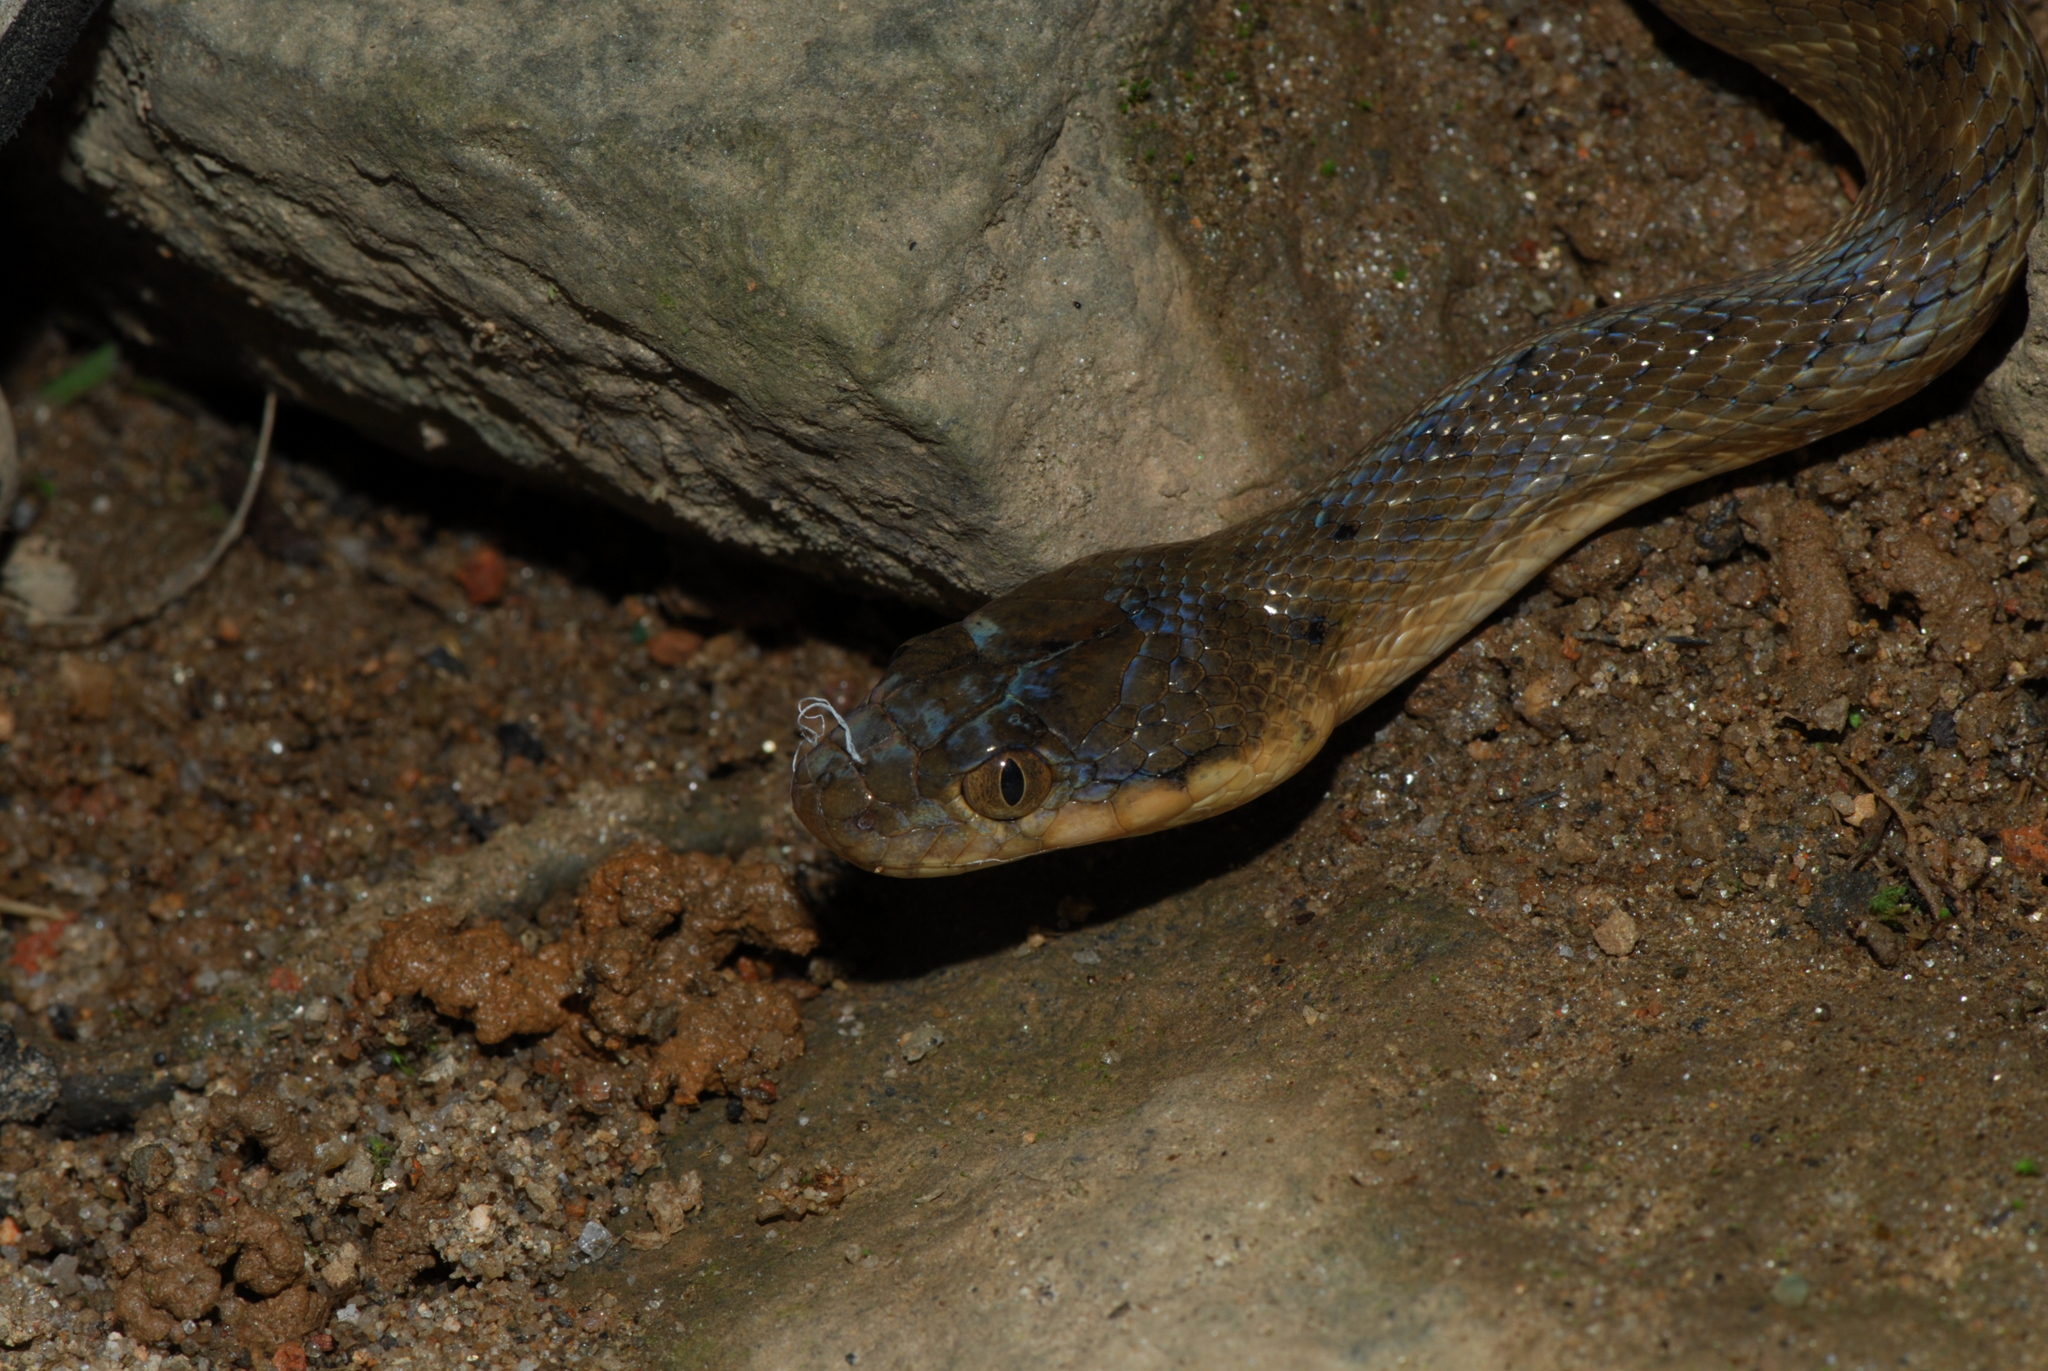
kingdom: Animalia
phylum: Chordata
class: Squamata
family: Pseudoxyrhophiidae
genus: Madagascarophis
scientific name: Madagascarophis colubrinus
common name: Madagascar night snake
